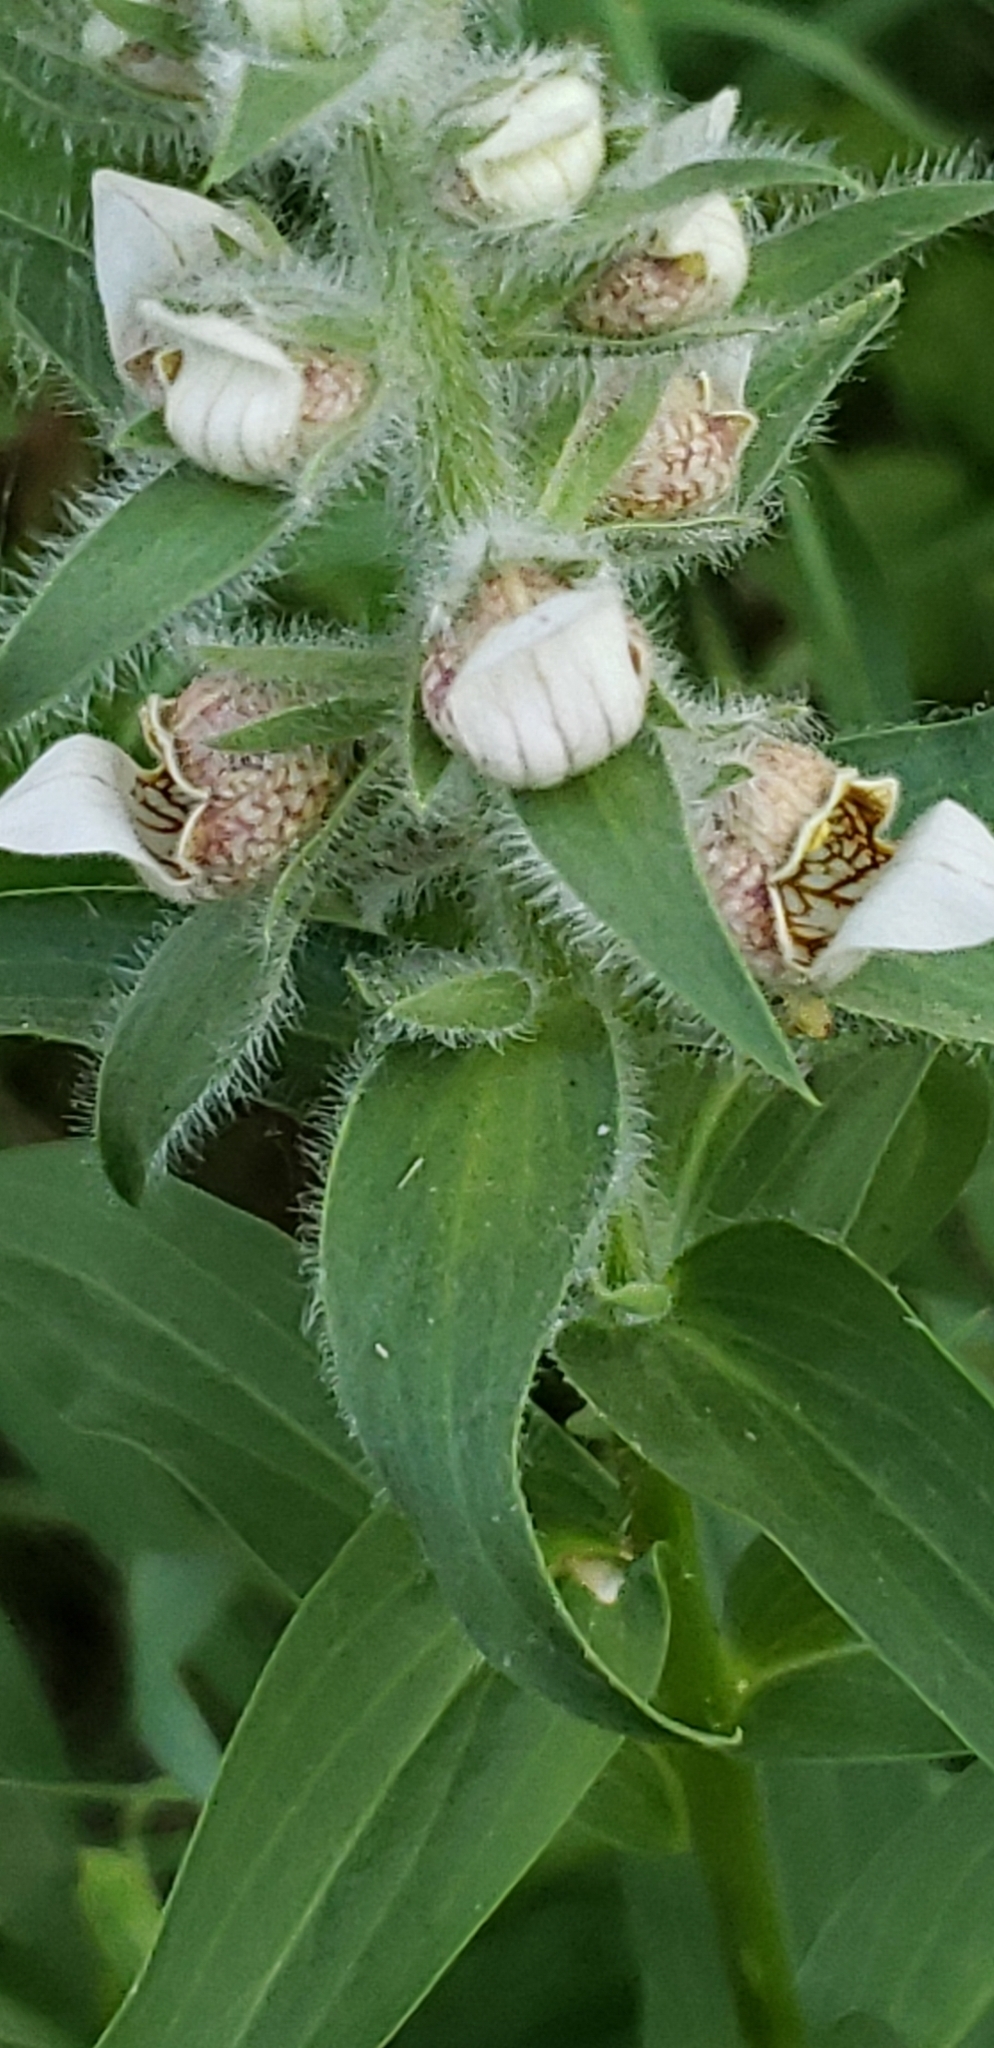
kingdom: Plantae
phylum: Tracheophyta
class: Magnoliopsida
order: Lamiales
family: Plantaginaceae
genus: Digitalis
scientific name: Digitalis lanata
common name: Grecian foxglove
